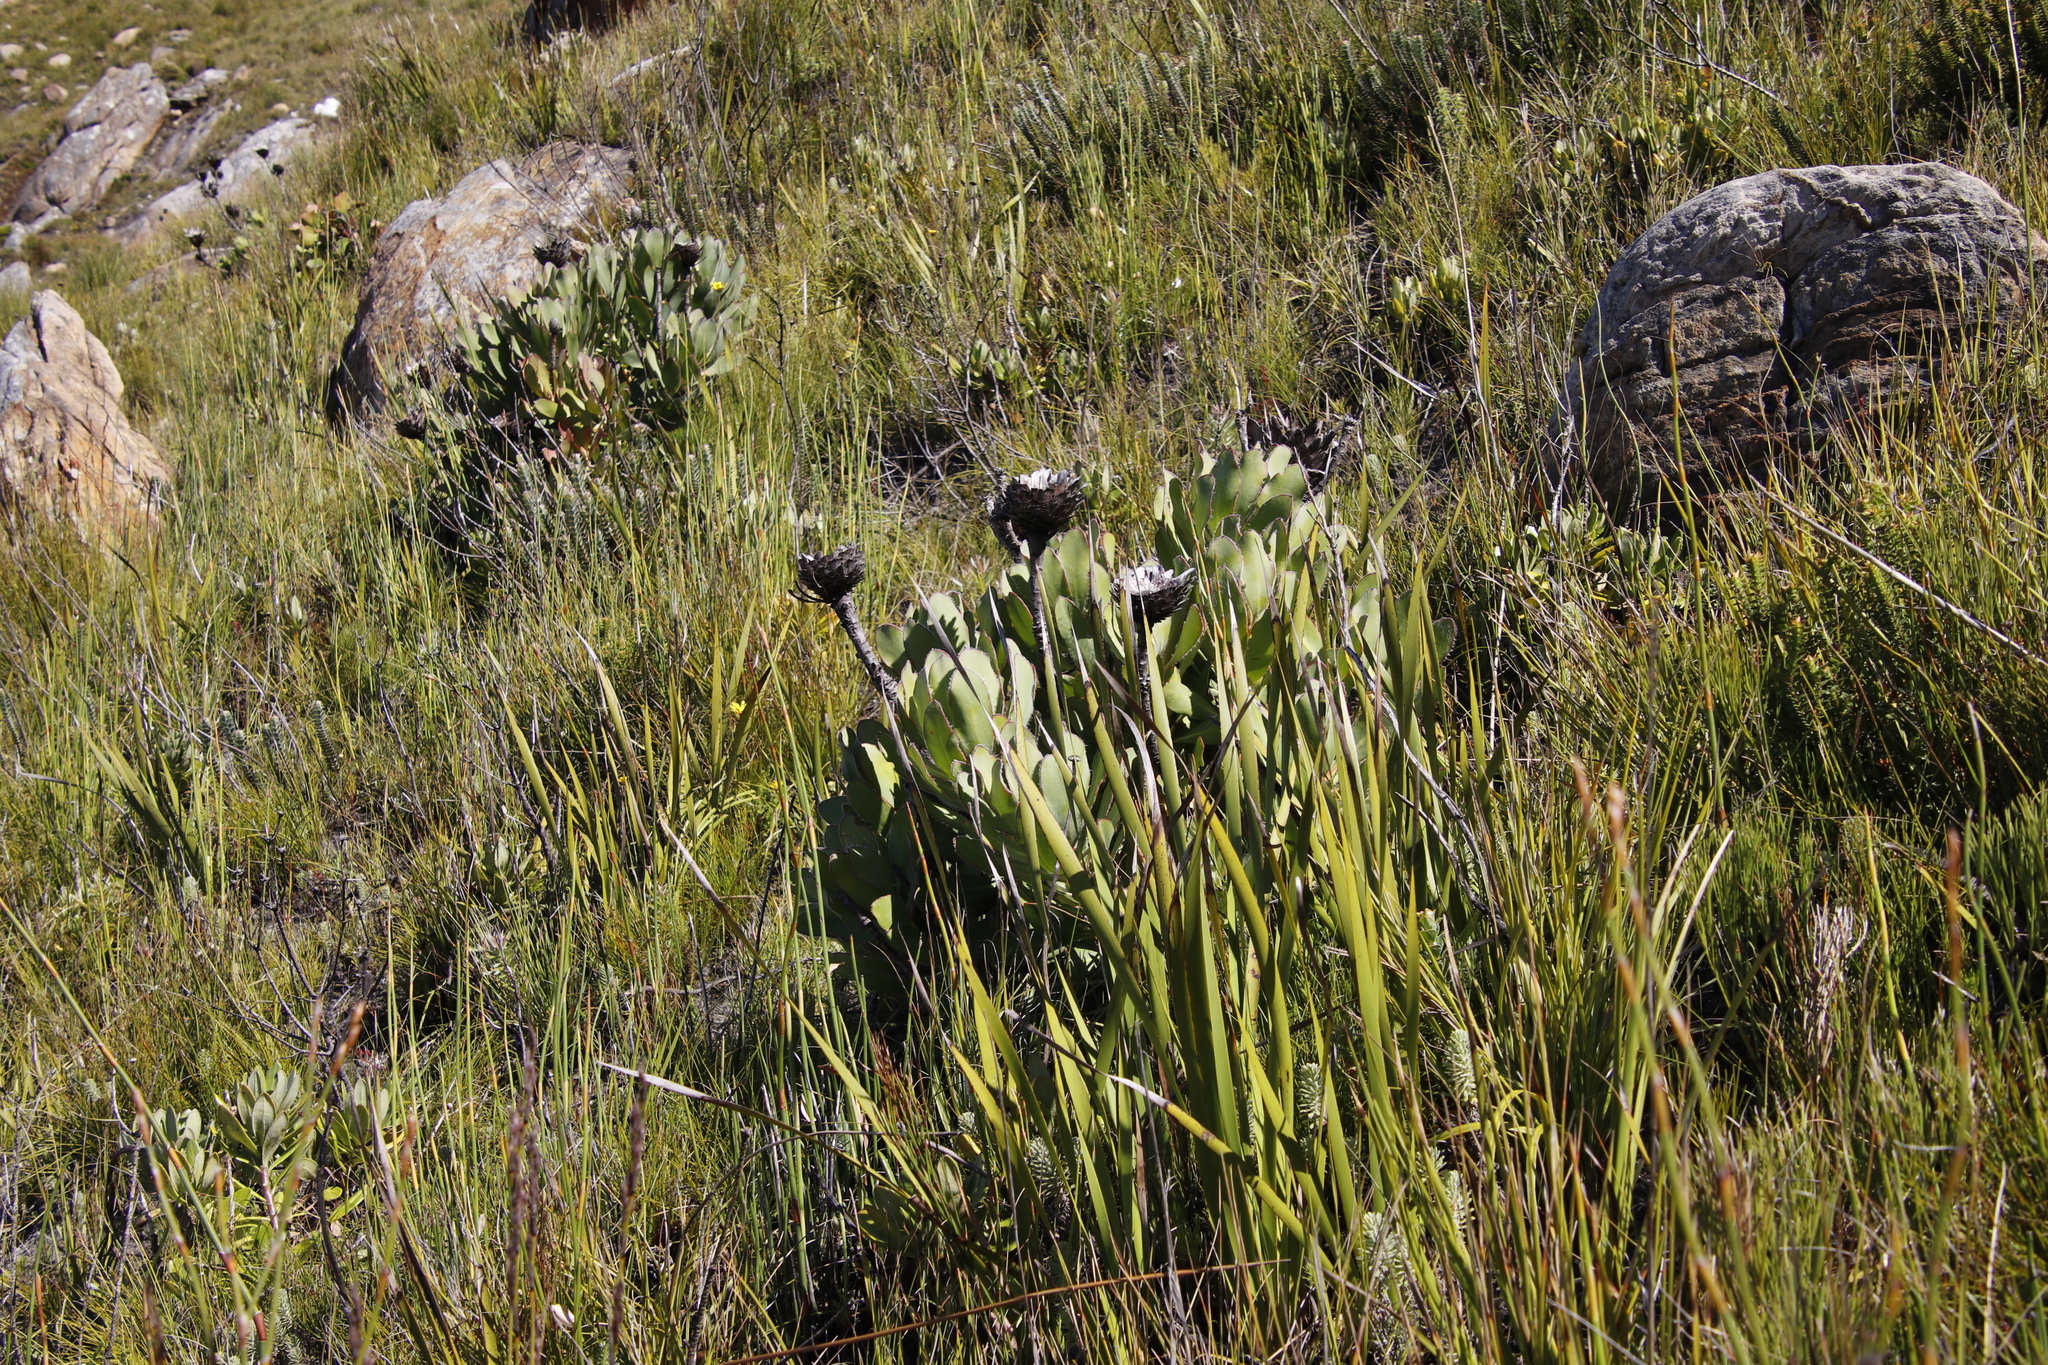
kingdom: Plantae
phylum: Tracheophyta
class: Magnoliopsida
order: Proteales
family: Proteaceae
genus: Protea
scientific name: Protea speciosa
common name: Brown-beard sugarbush
